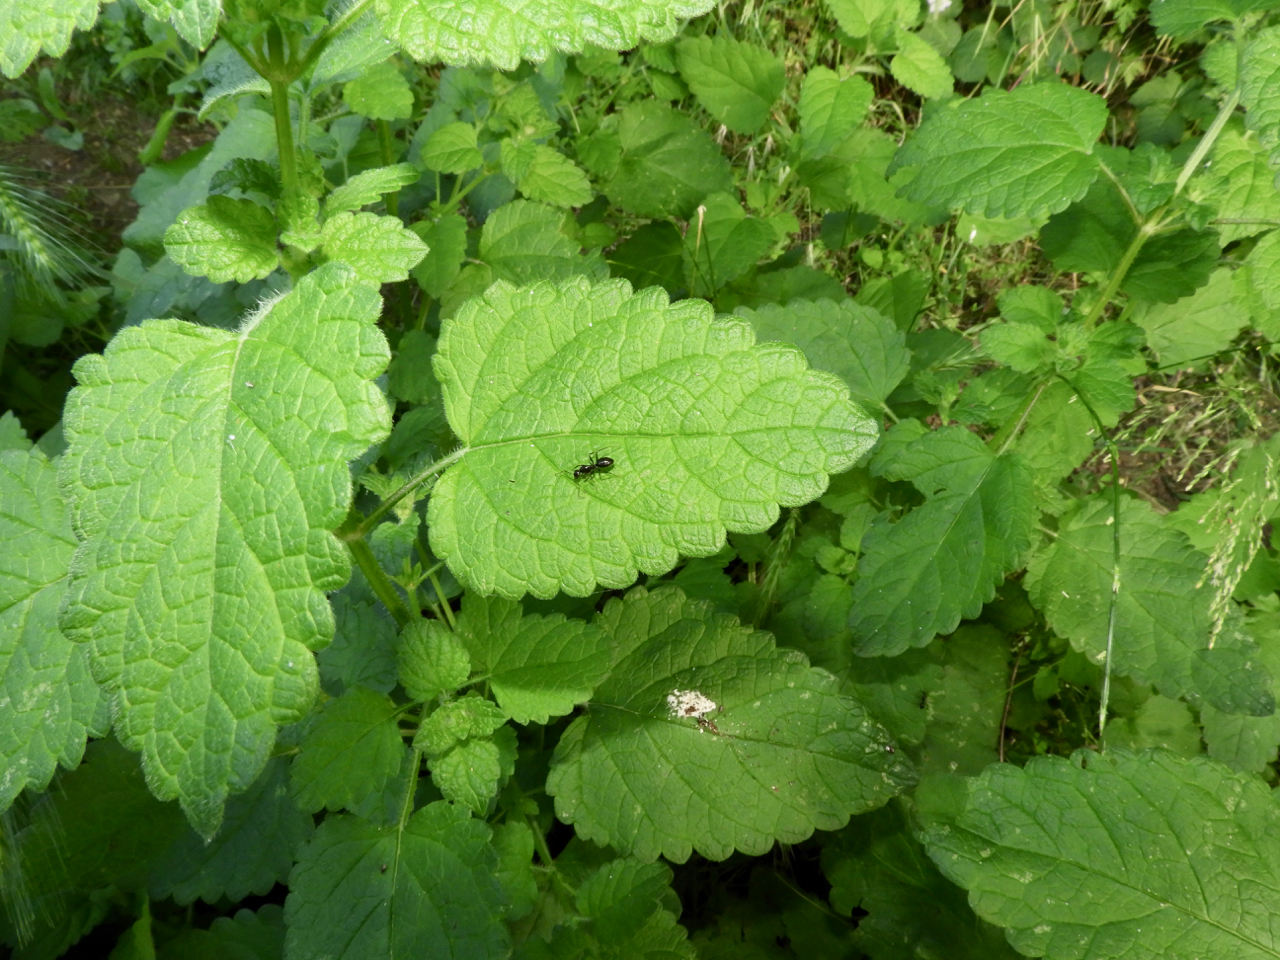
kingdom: Animalia
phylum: Arthropoda
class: Insecta
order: Hymenoptera
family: Formicidae
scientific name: Formicidae
